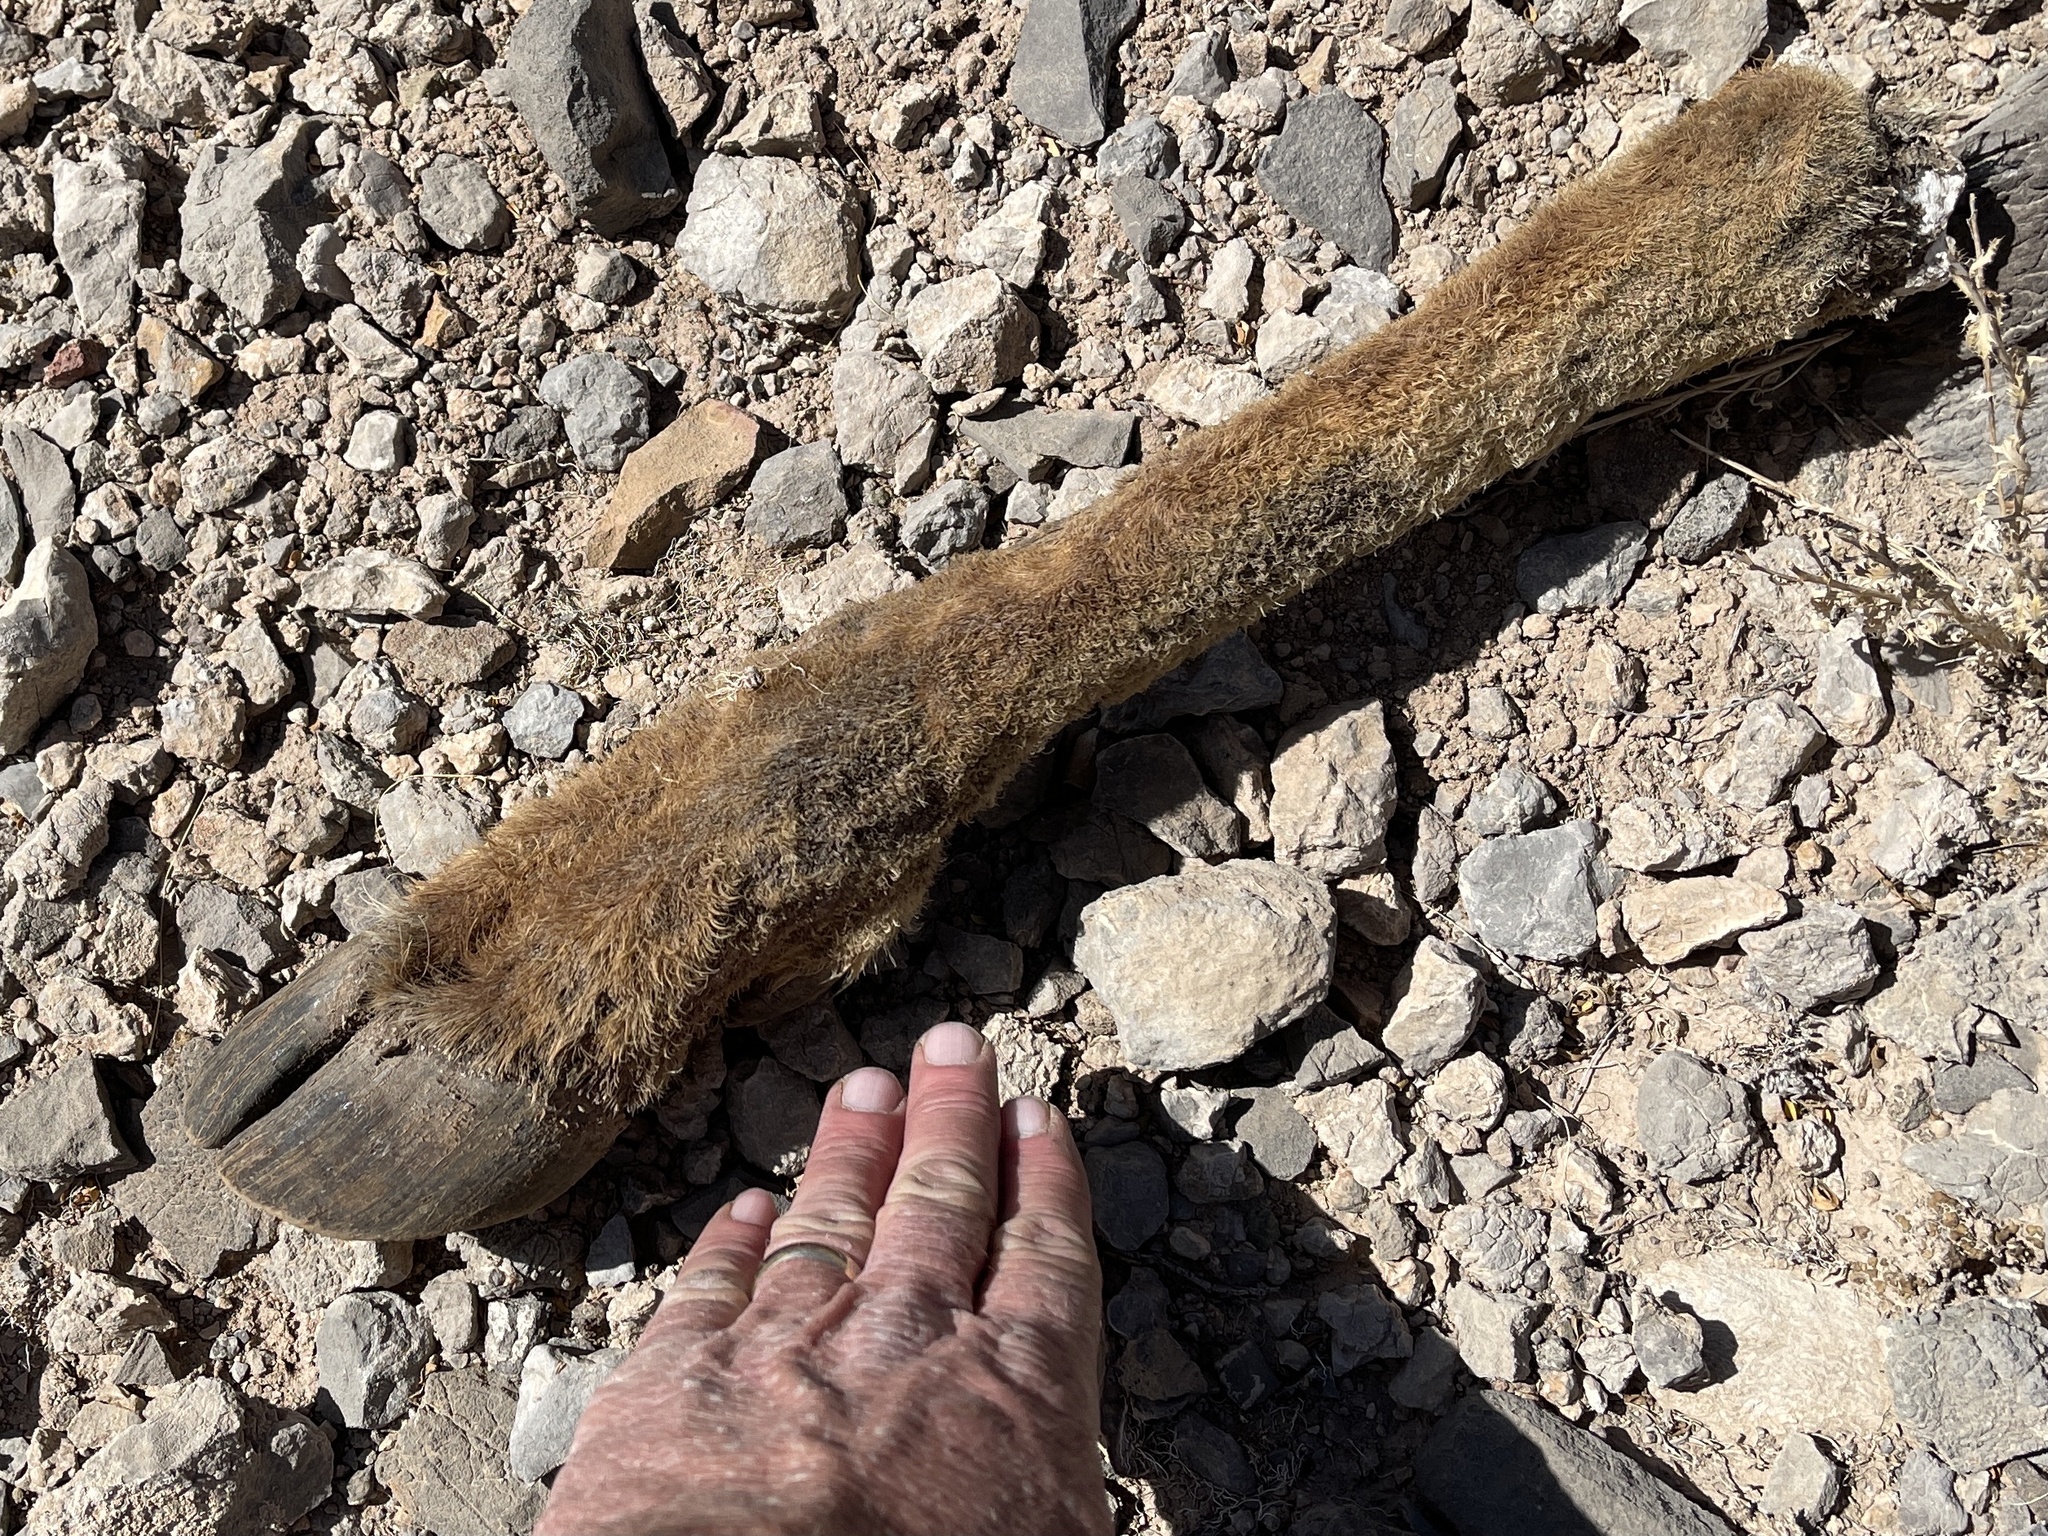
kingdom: Animalia
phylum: Chordata
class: Mammalia
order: Artiodactyla
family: Cervidae
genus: Cervus
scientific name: Cervus elaphus
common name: Red deer
